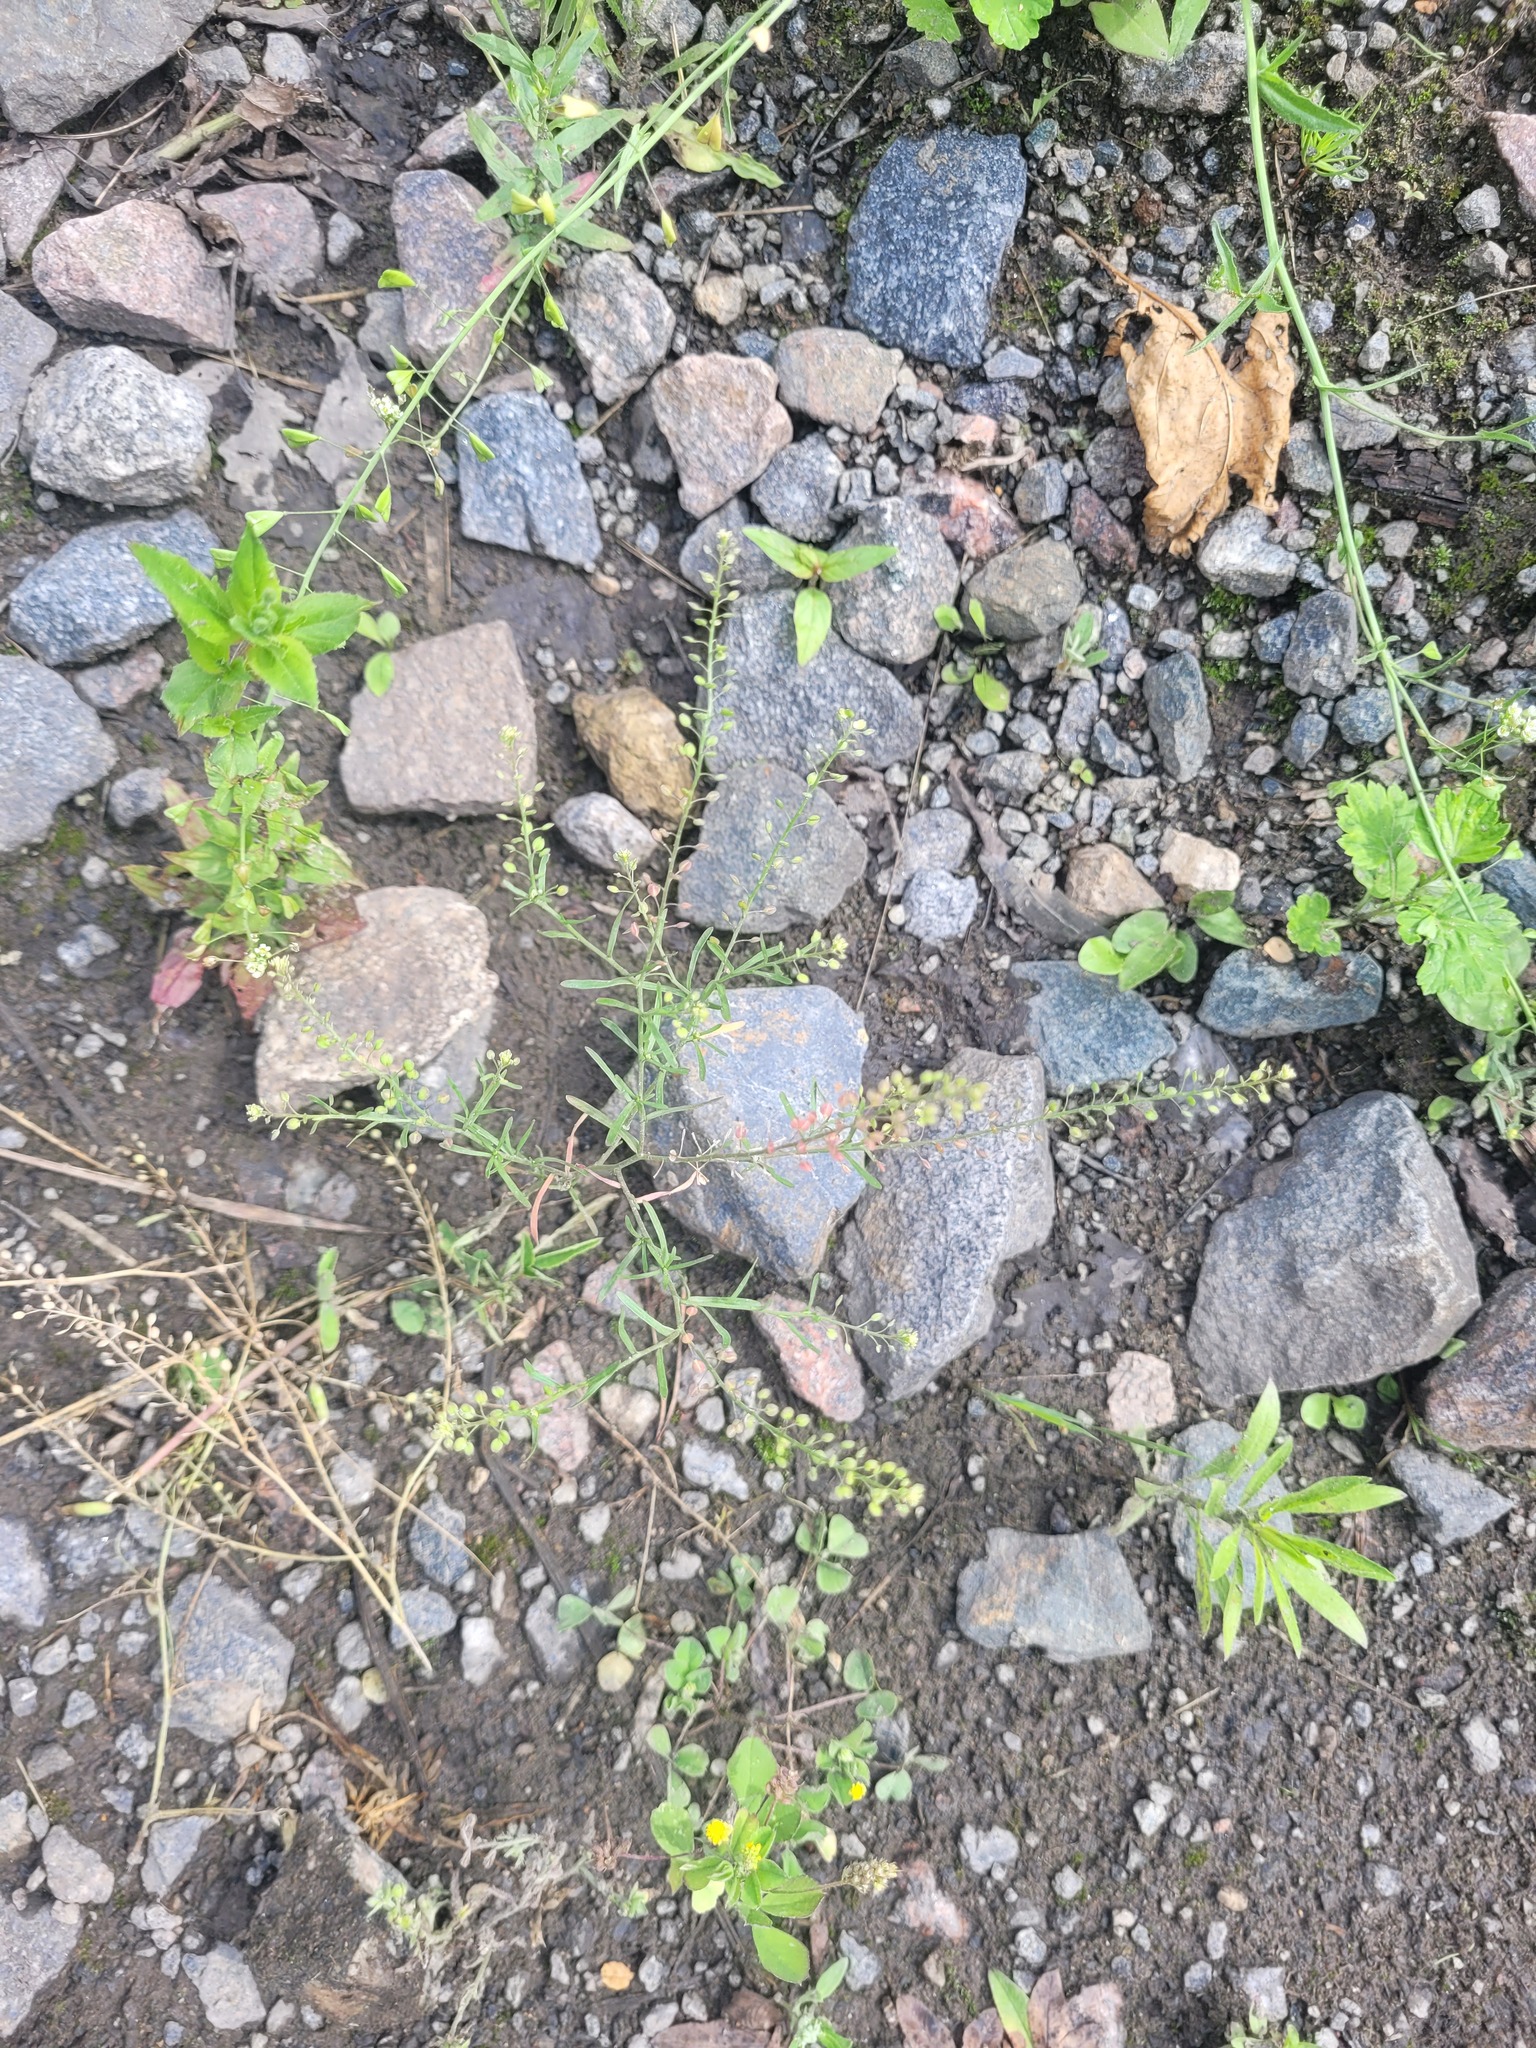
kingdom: Plantae
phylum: Tracheophyta
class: Magnoliopsida
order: Brassicales
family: Brassicaceae
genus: Lepidium
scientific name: Lepidium ruderale
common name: Narrow-leaved pepperwort
